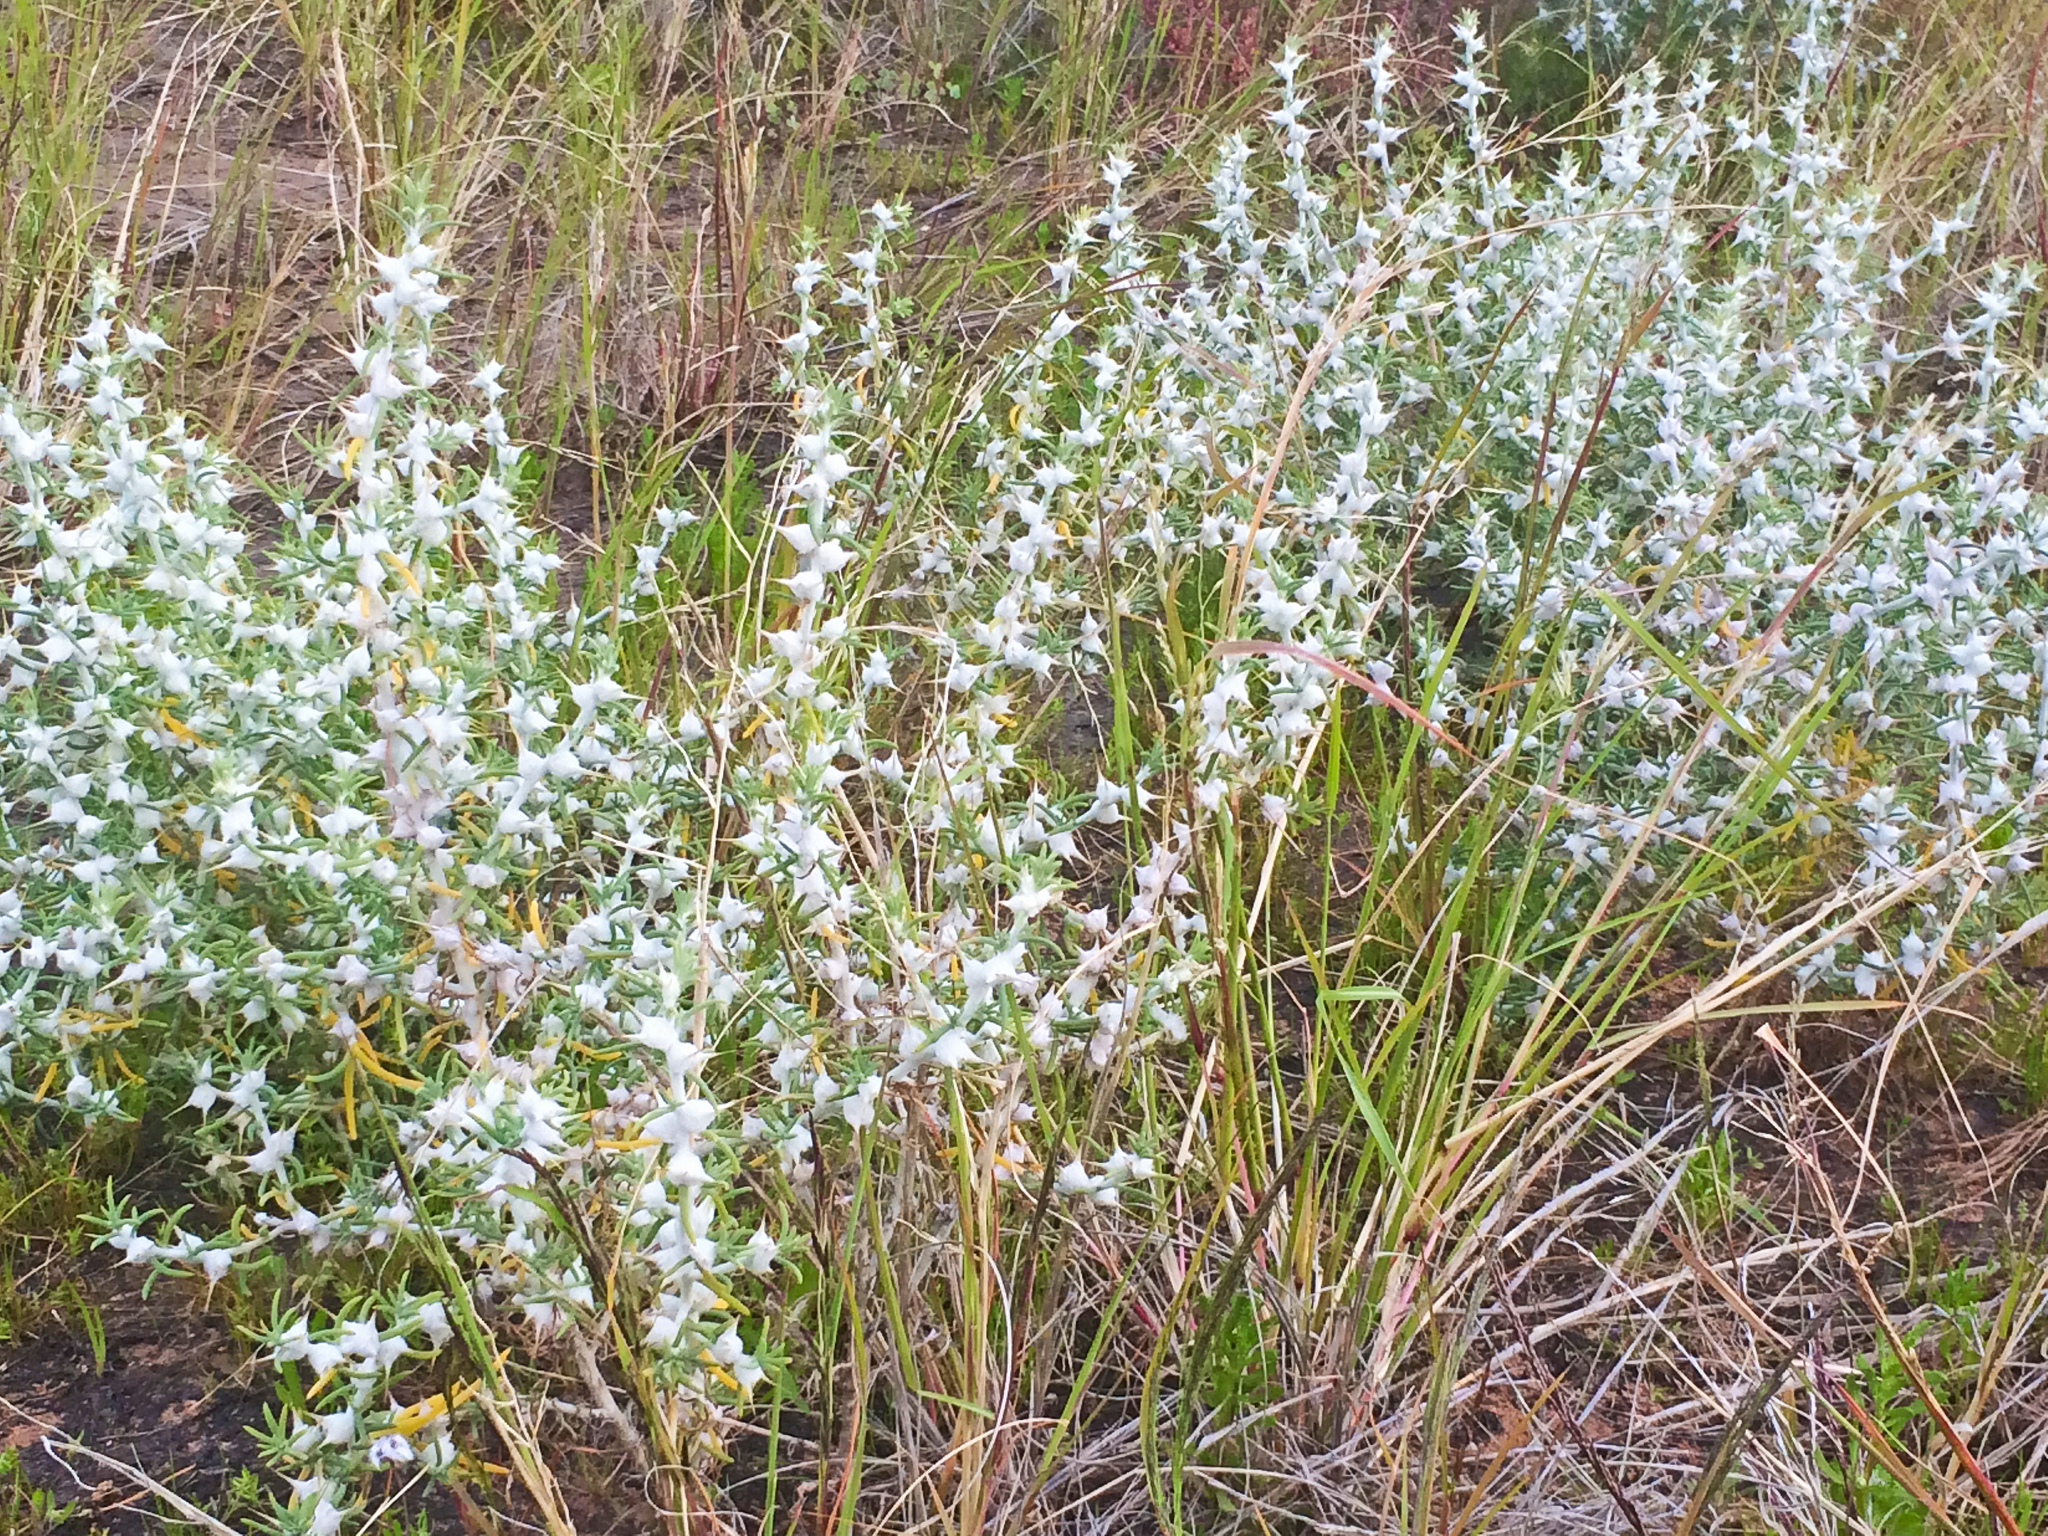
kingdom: Plantae
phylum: Tracheophyta
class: Magnoliopsida
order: Caryophyllales
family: Amaranthaceae
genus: Sclerolaena
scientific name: Sclerolaena bicornis
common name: Goatheadbur
